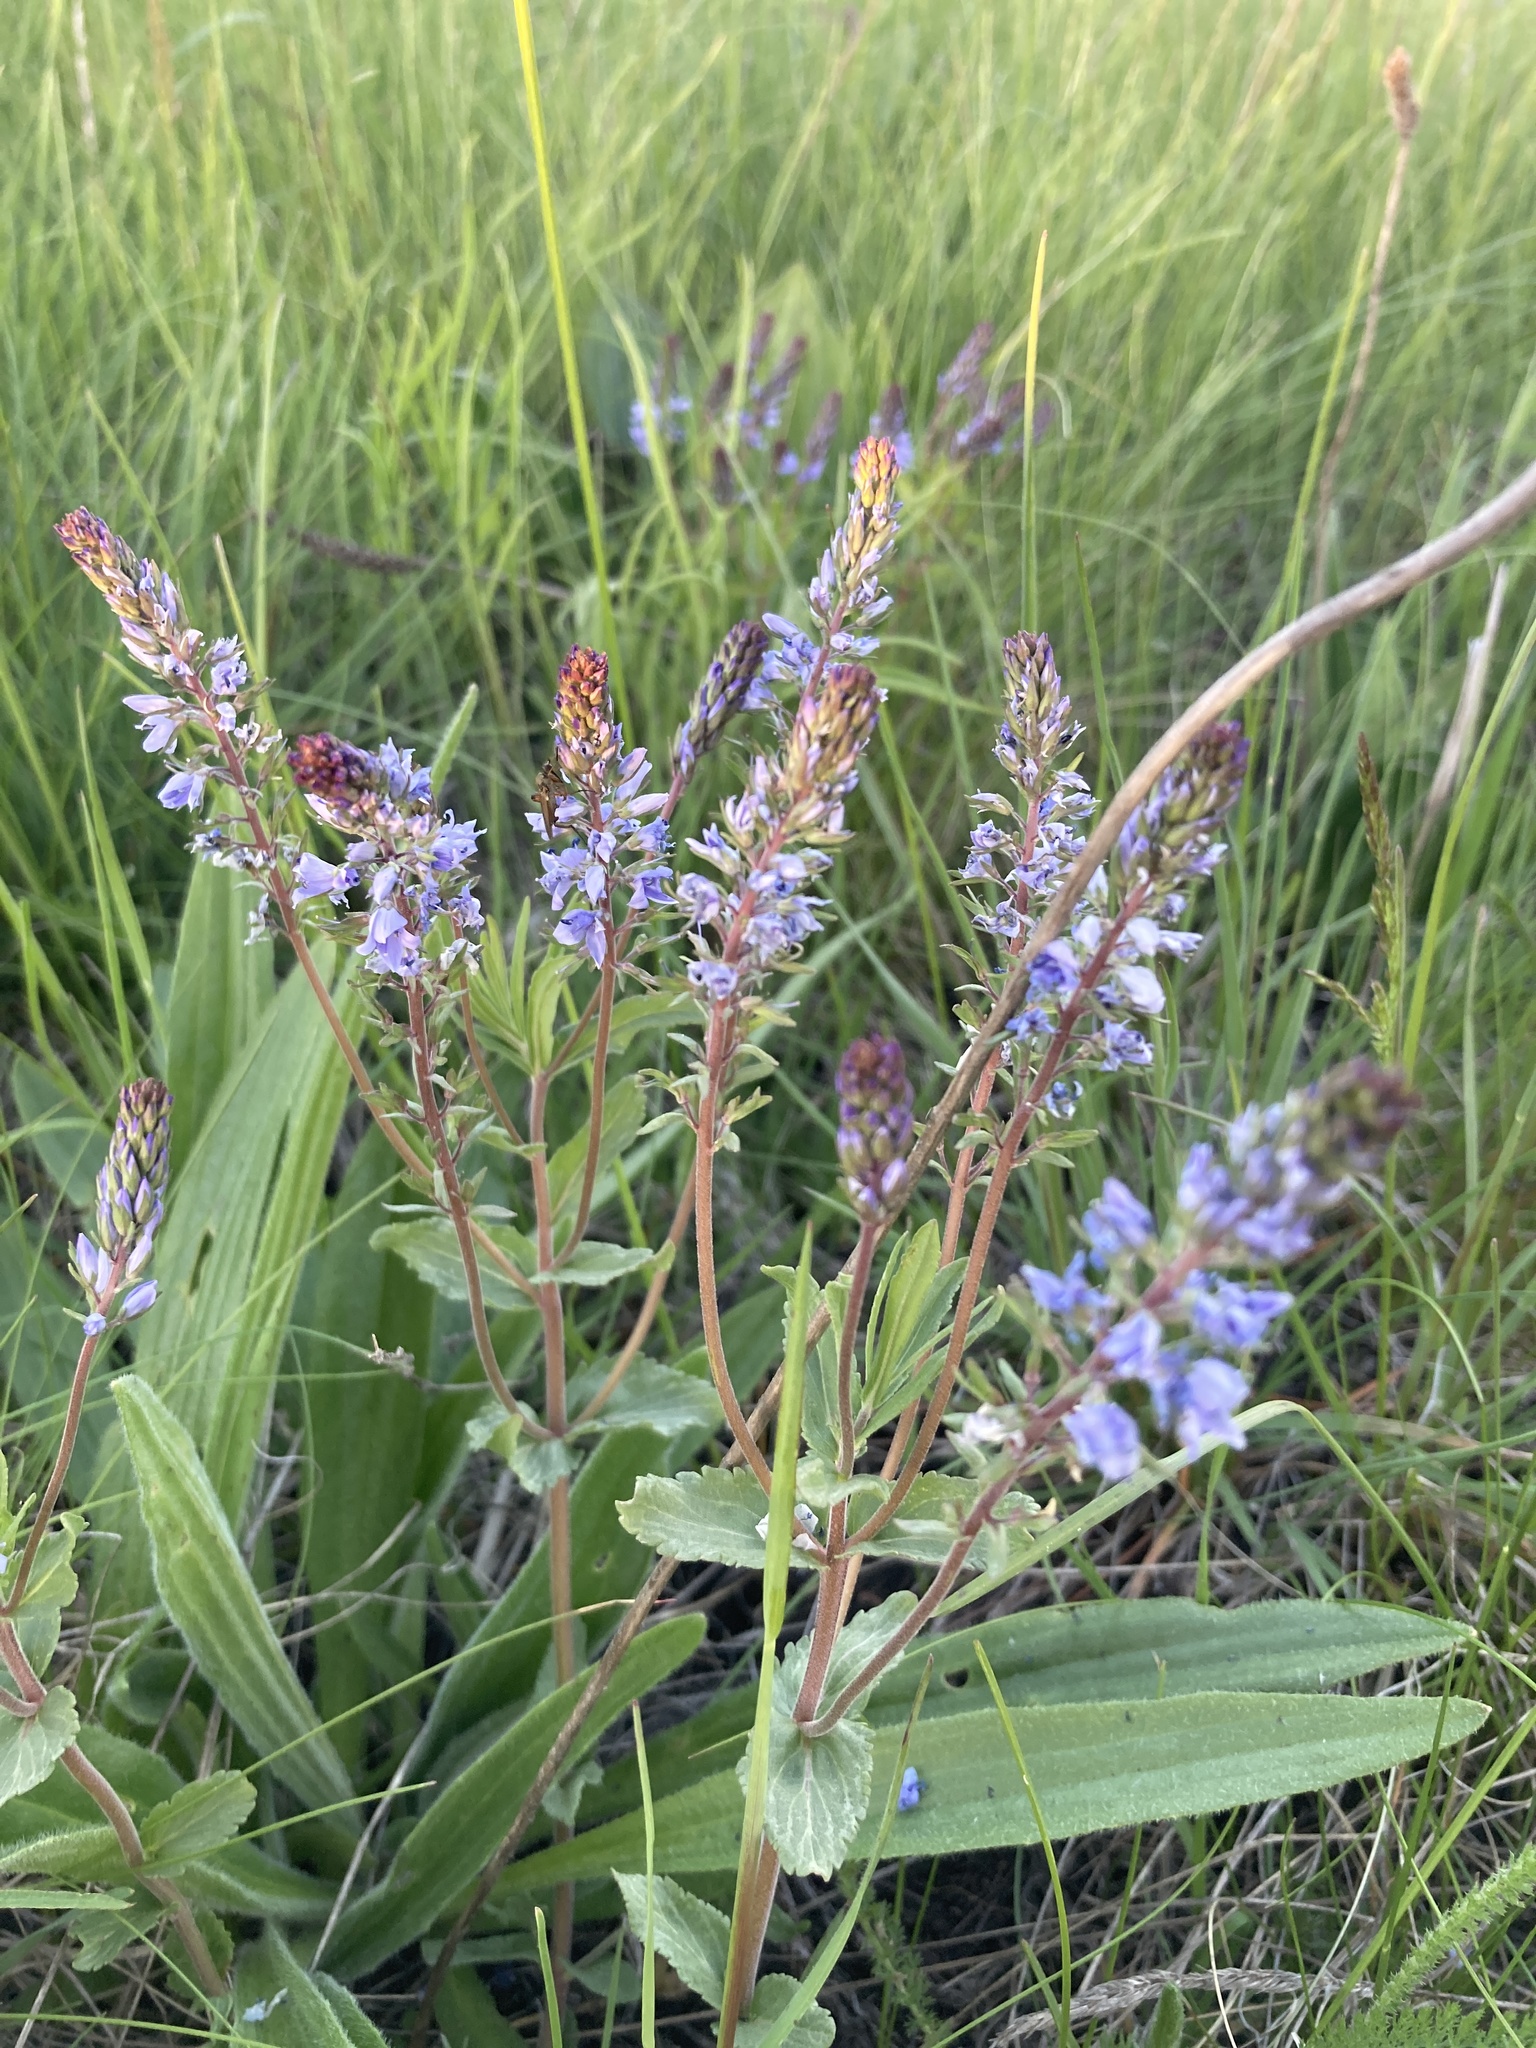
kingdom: Plantae
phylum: Tracheophyta
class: Magnoliopsida
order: Lamiales
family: Plantaginaceae
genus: Veronica
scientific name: Veronica prostrata
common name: Prostrate speedwell
